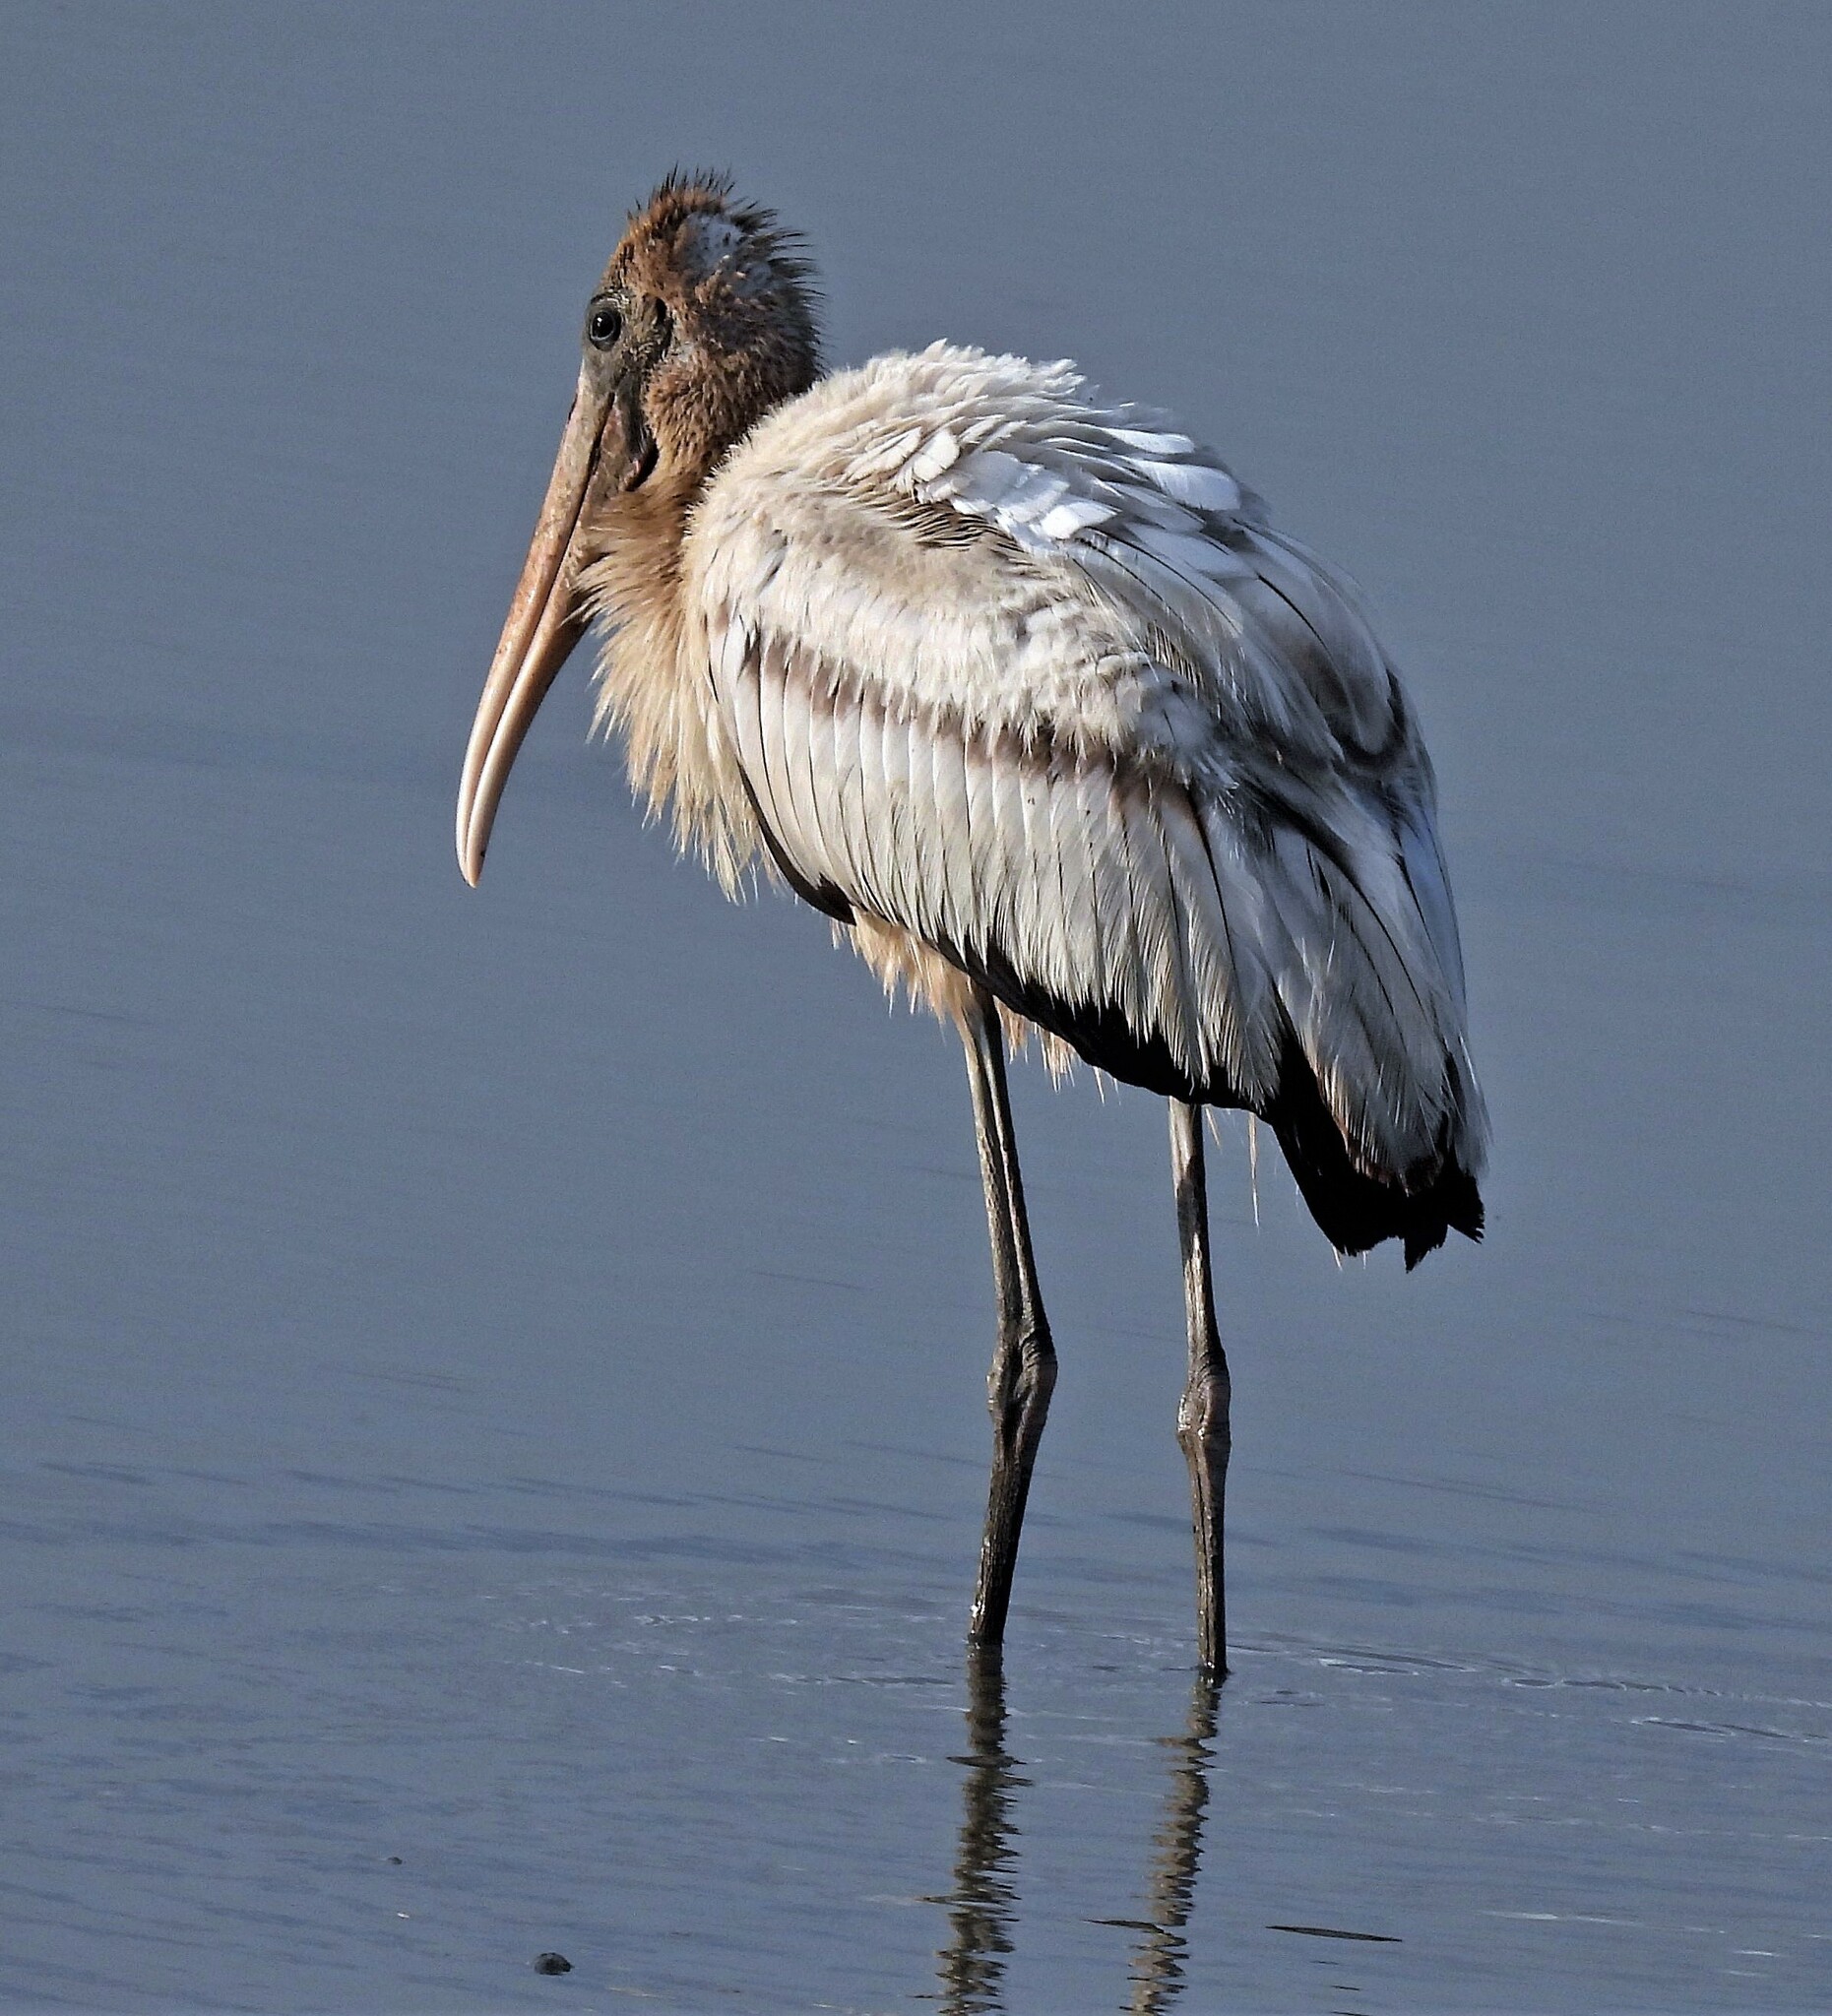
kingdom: Animalia
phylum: Chordata
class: Aves
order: Ciconiiformes
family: Ciconiidae
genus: Mycteria
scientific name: Mycteria americana
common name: Wood stork
